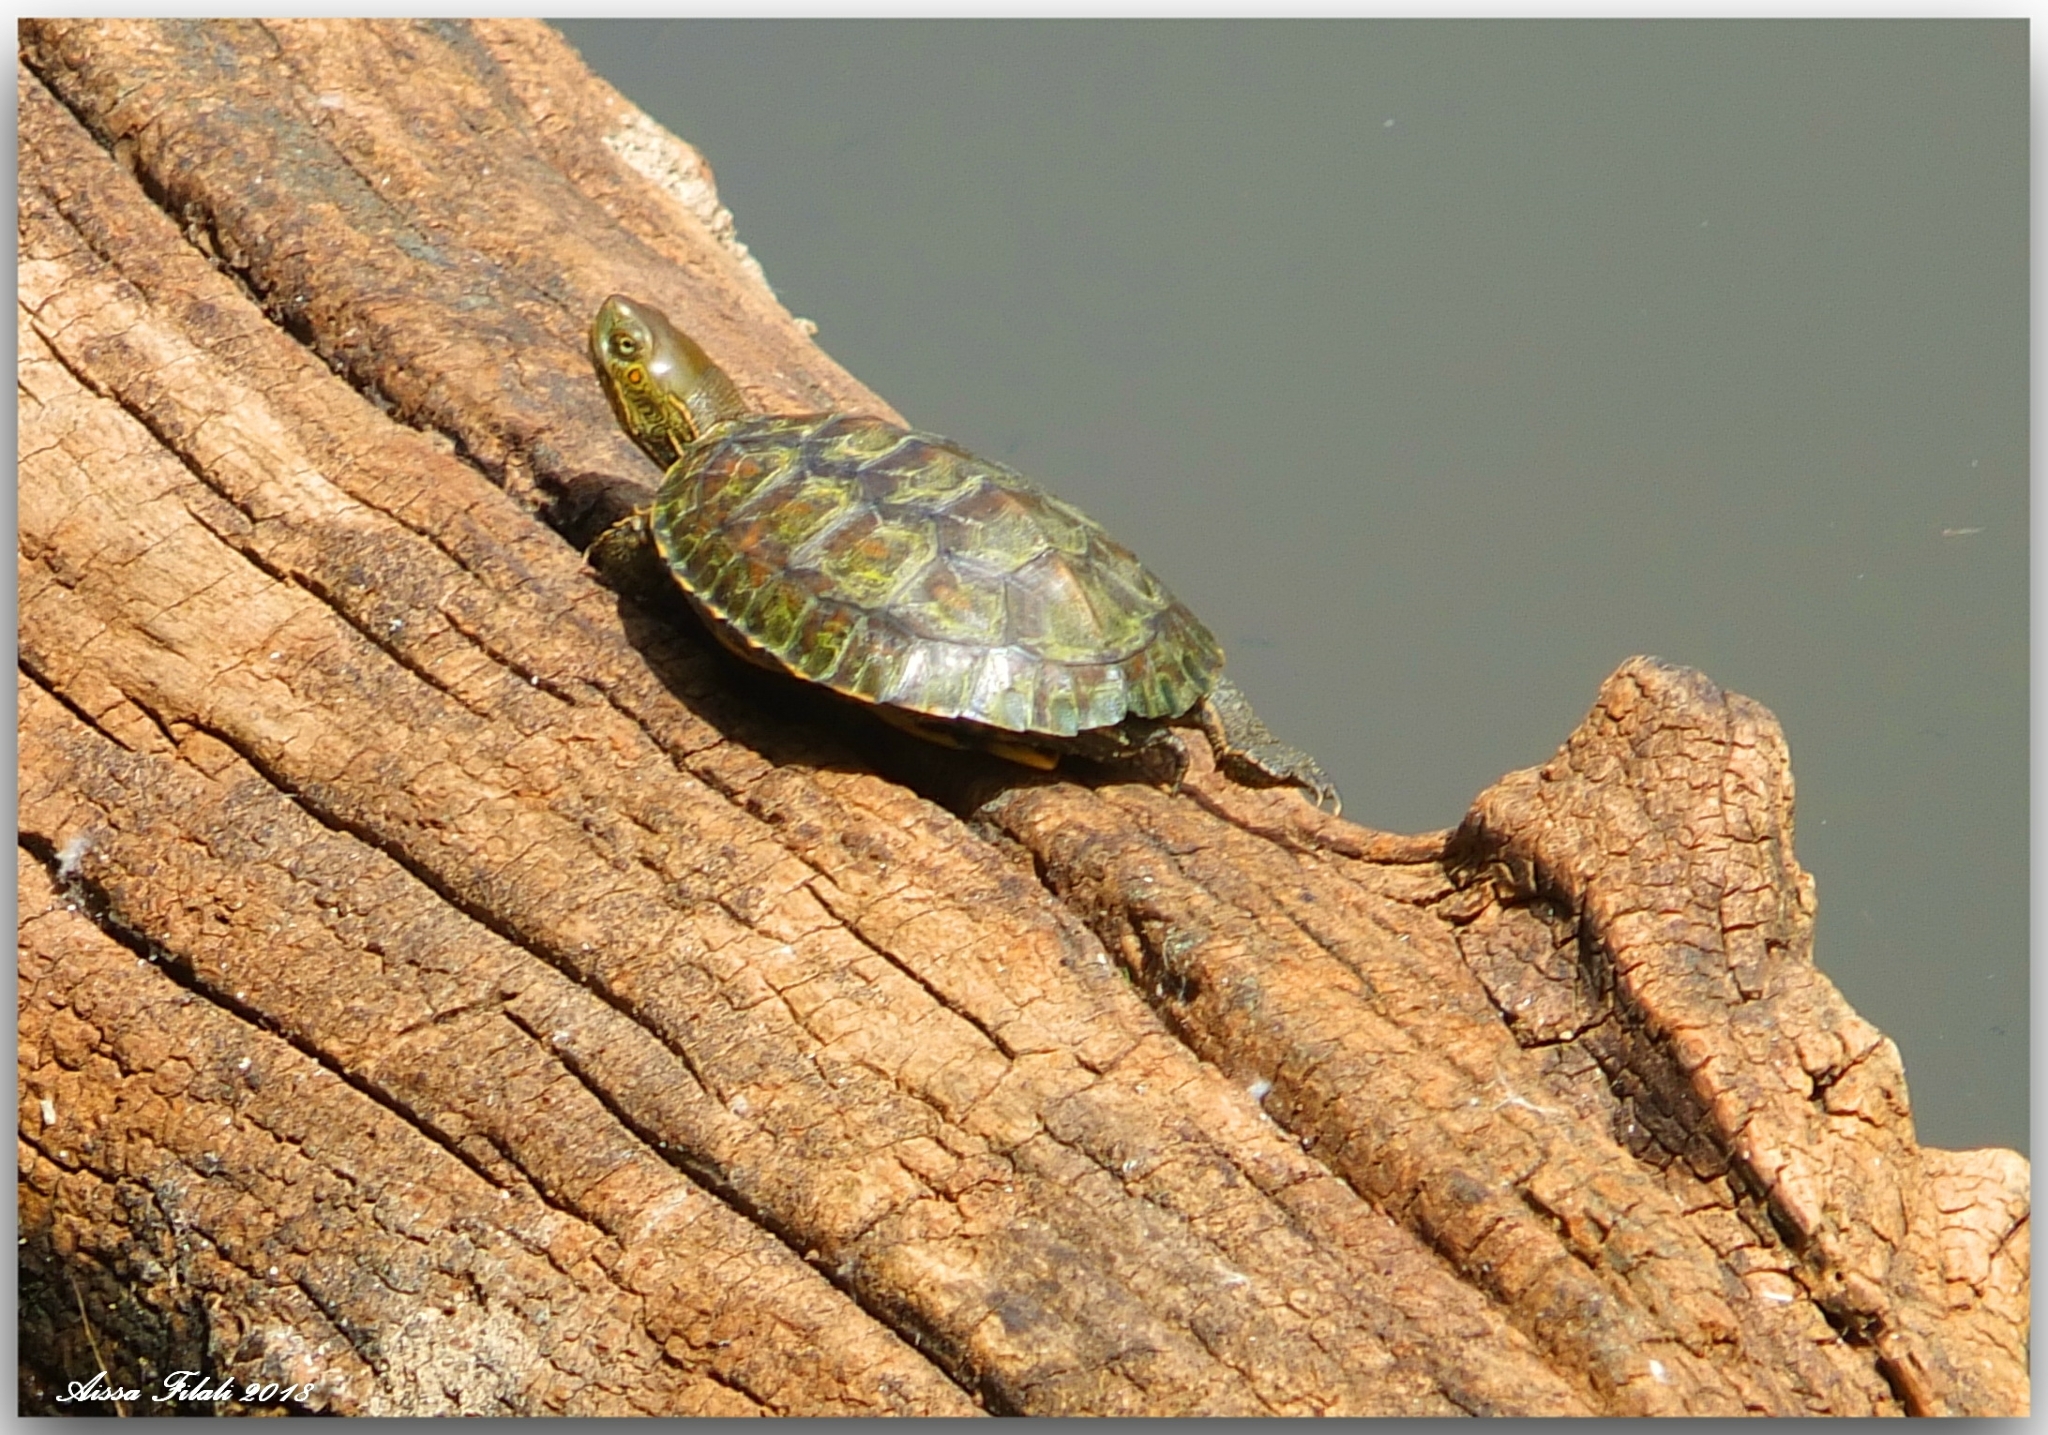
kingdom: Animalia
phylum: Chordata
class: Testudines
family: Geoemydidae
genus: Mauremys
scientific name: Mauremys leprosa
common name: Mediterranean pond turtle
